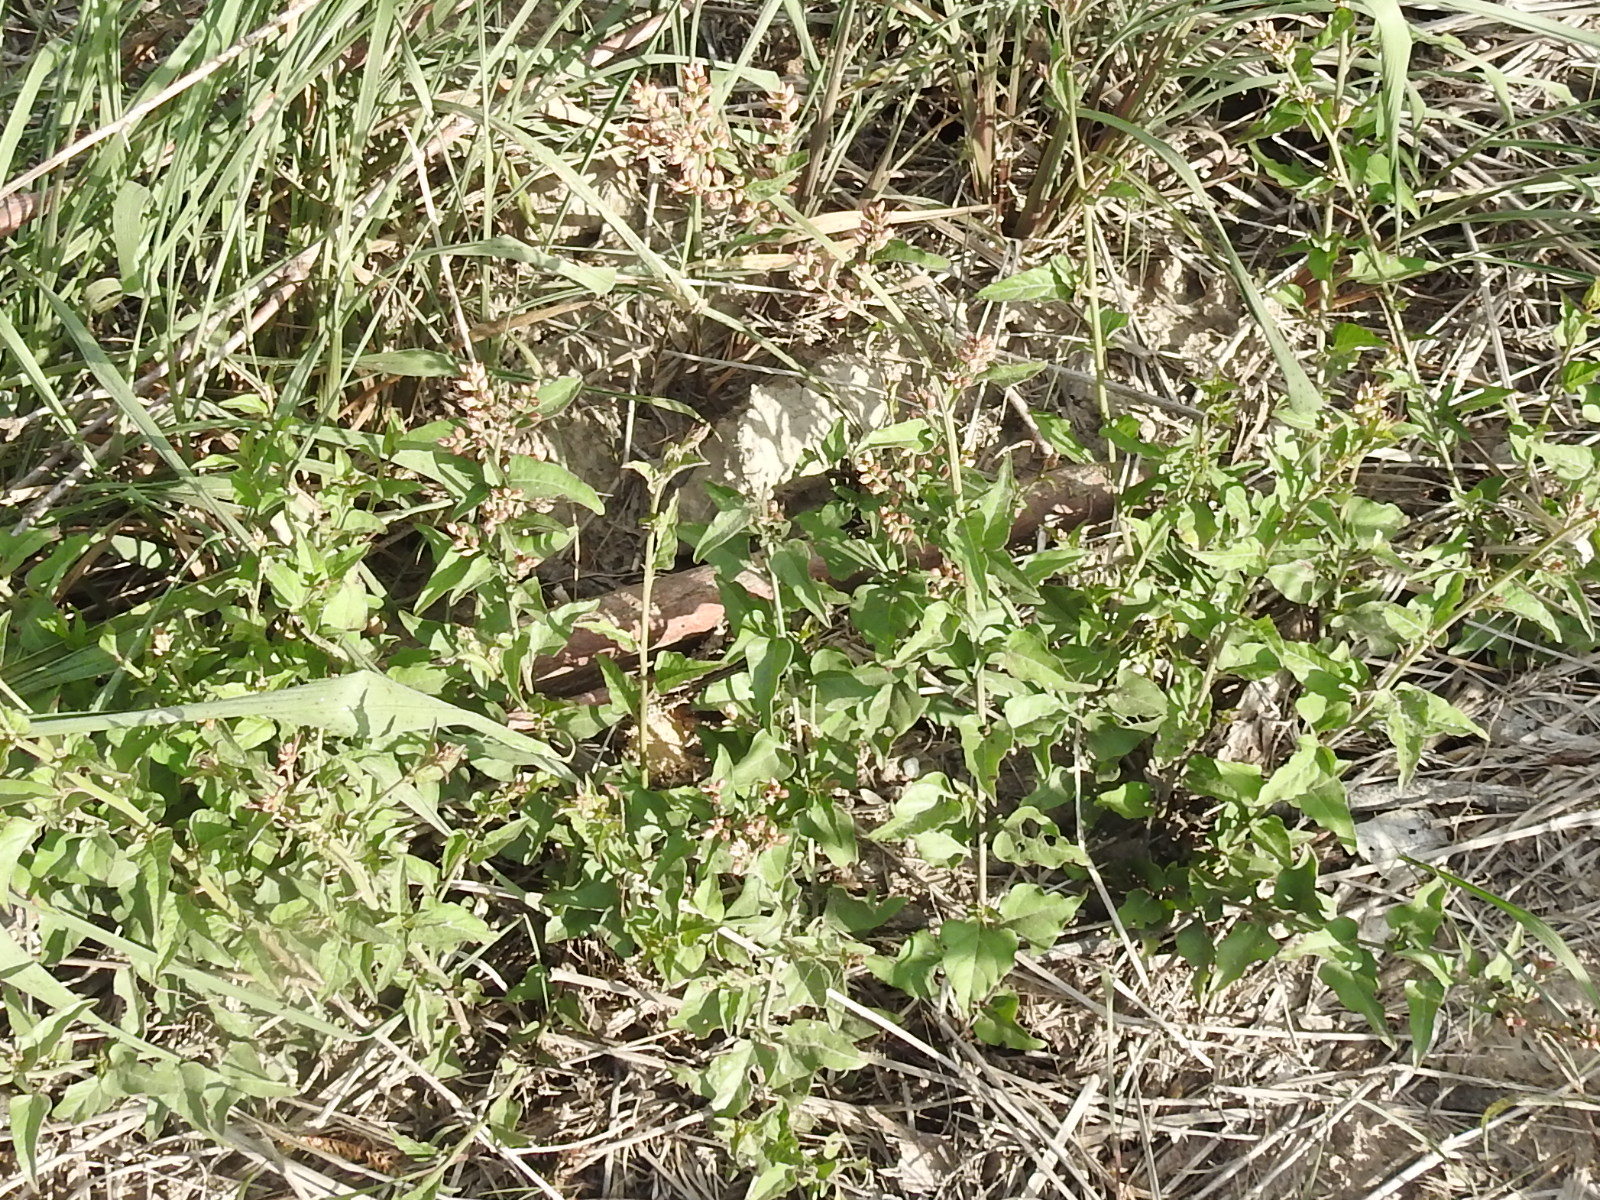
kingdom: Plantae
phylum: Tracheophyta
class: Magnoliopsida
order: Caryophyllales
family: Amaranthaceae
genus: Celosia
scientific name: Celosia nitida
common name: West indian cock's comb
